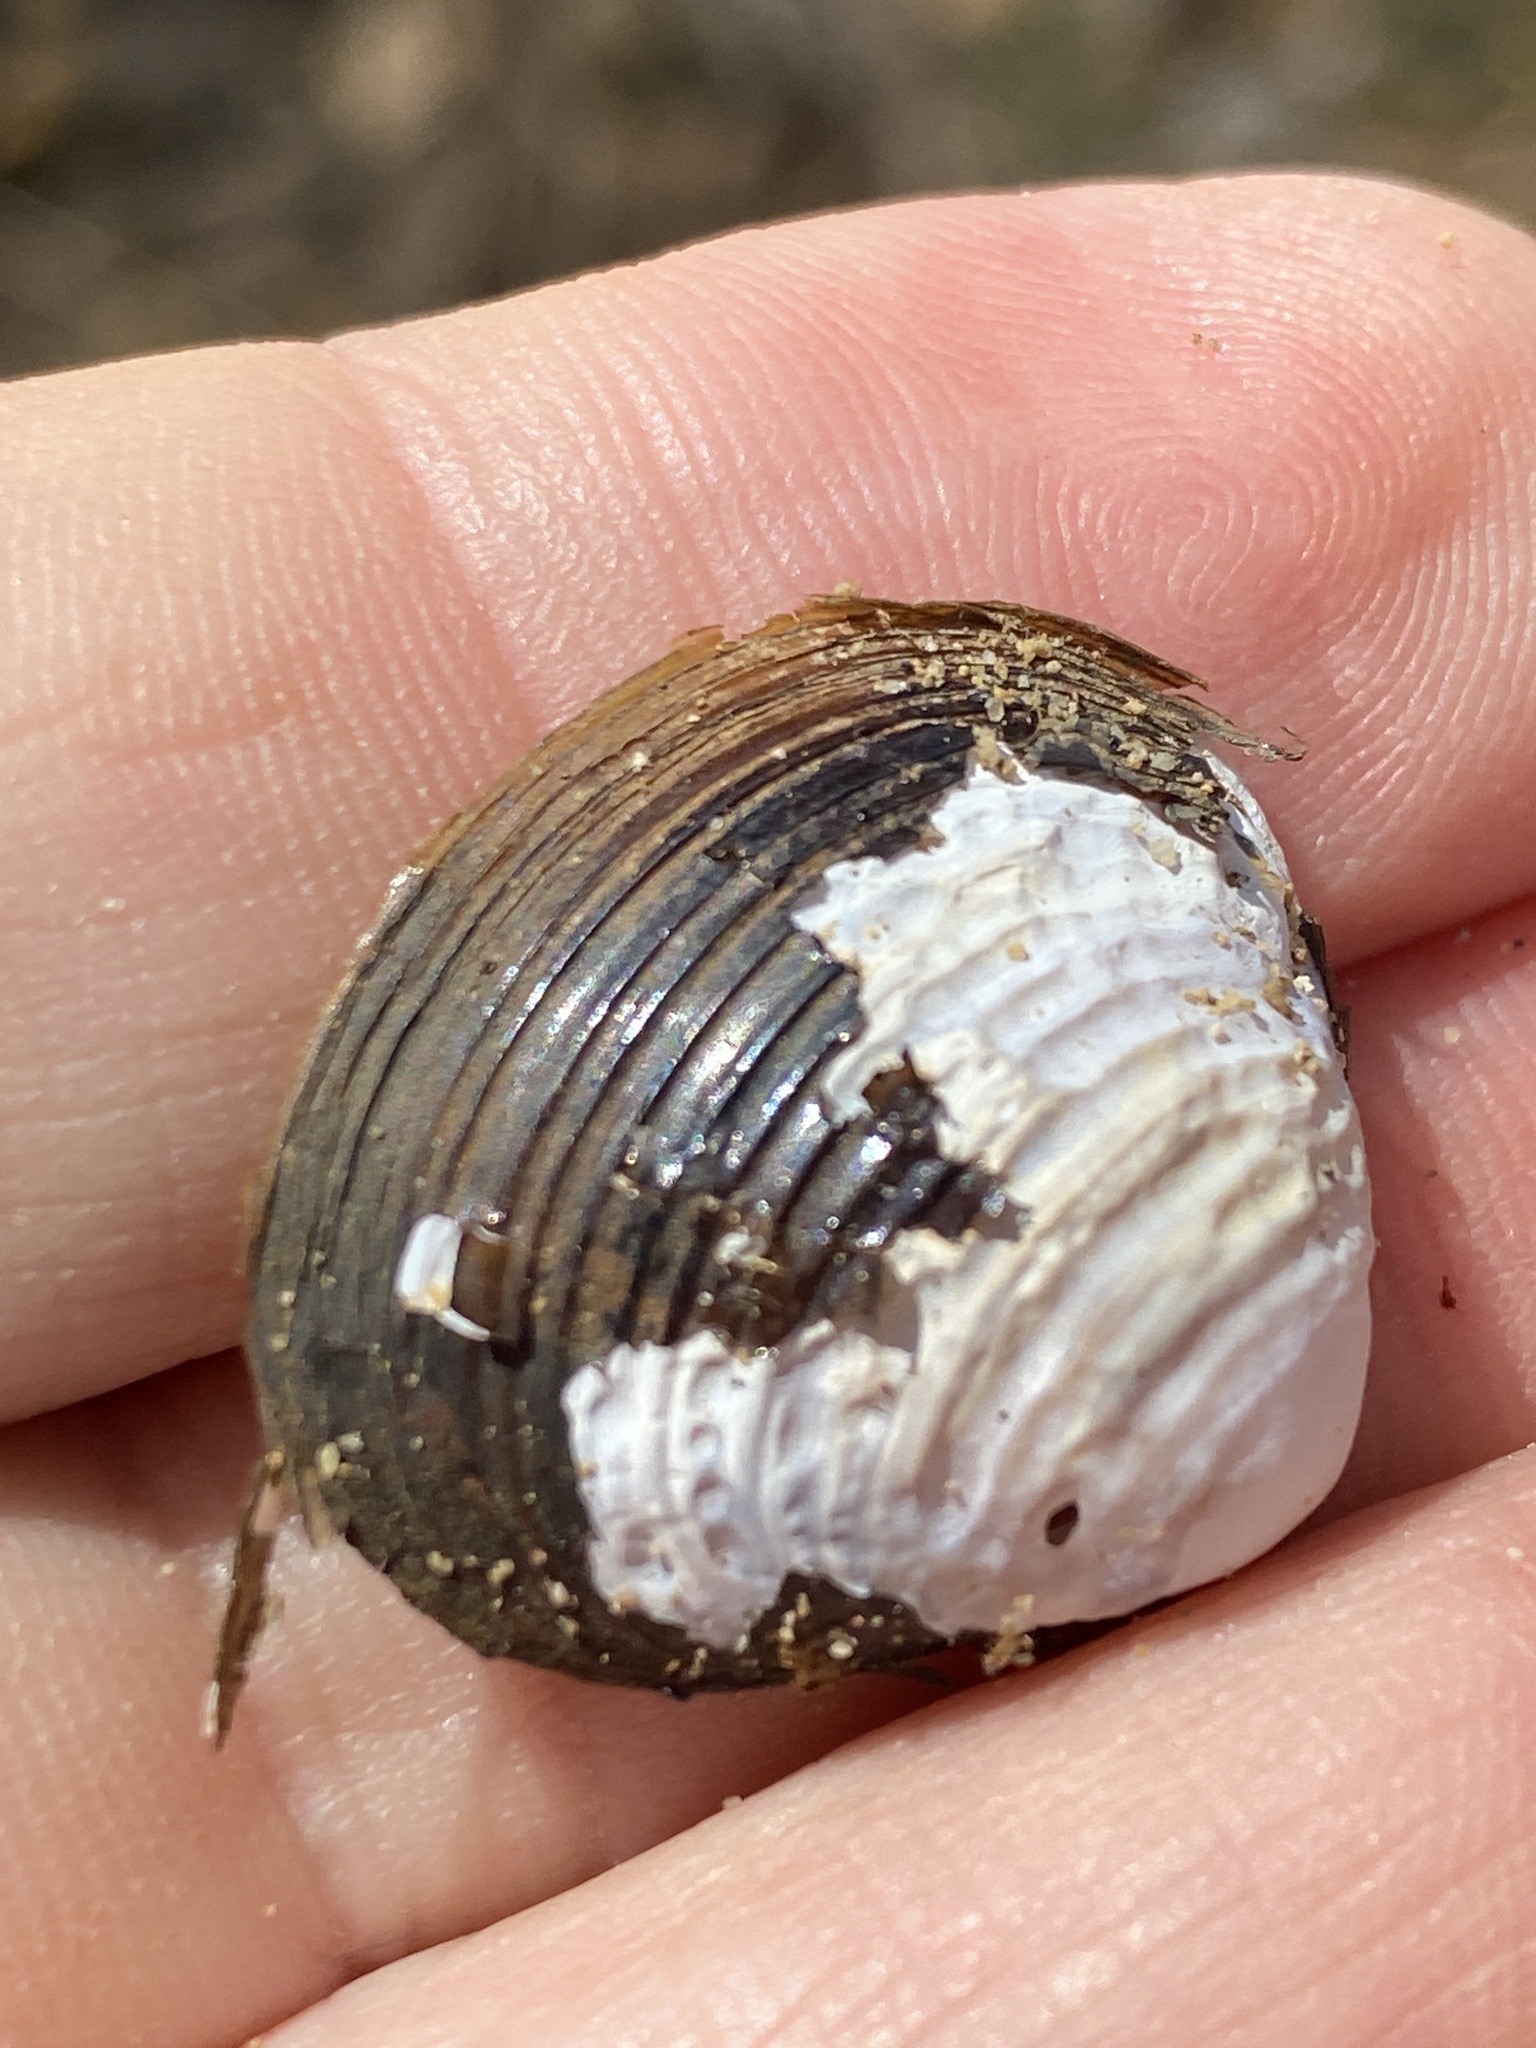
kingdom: Animalia
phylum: Mollusca
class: Bivalvia
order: Venerida
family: Cyrenidae
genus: Corbicula
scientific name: Corbicula fluminea
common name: Asian clam
